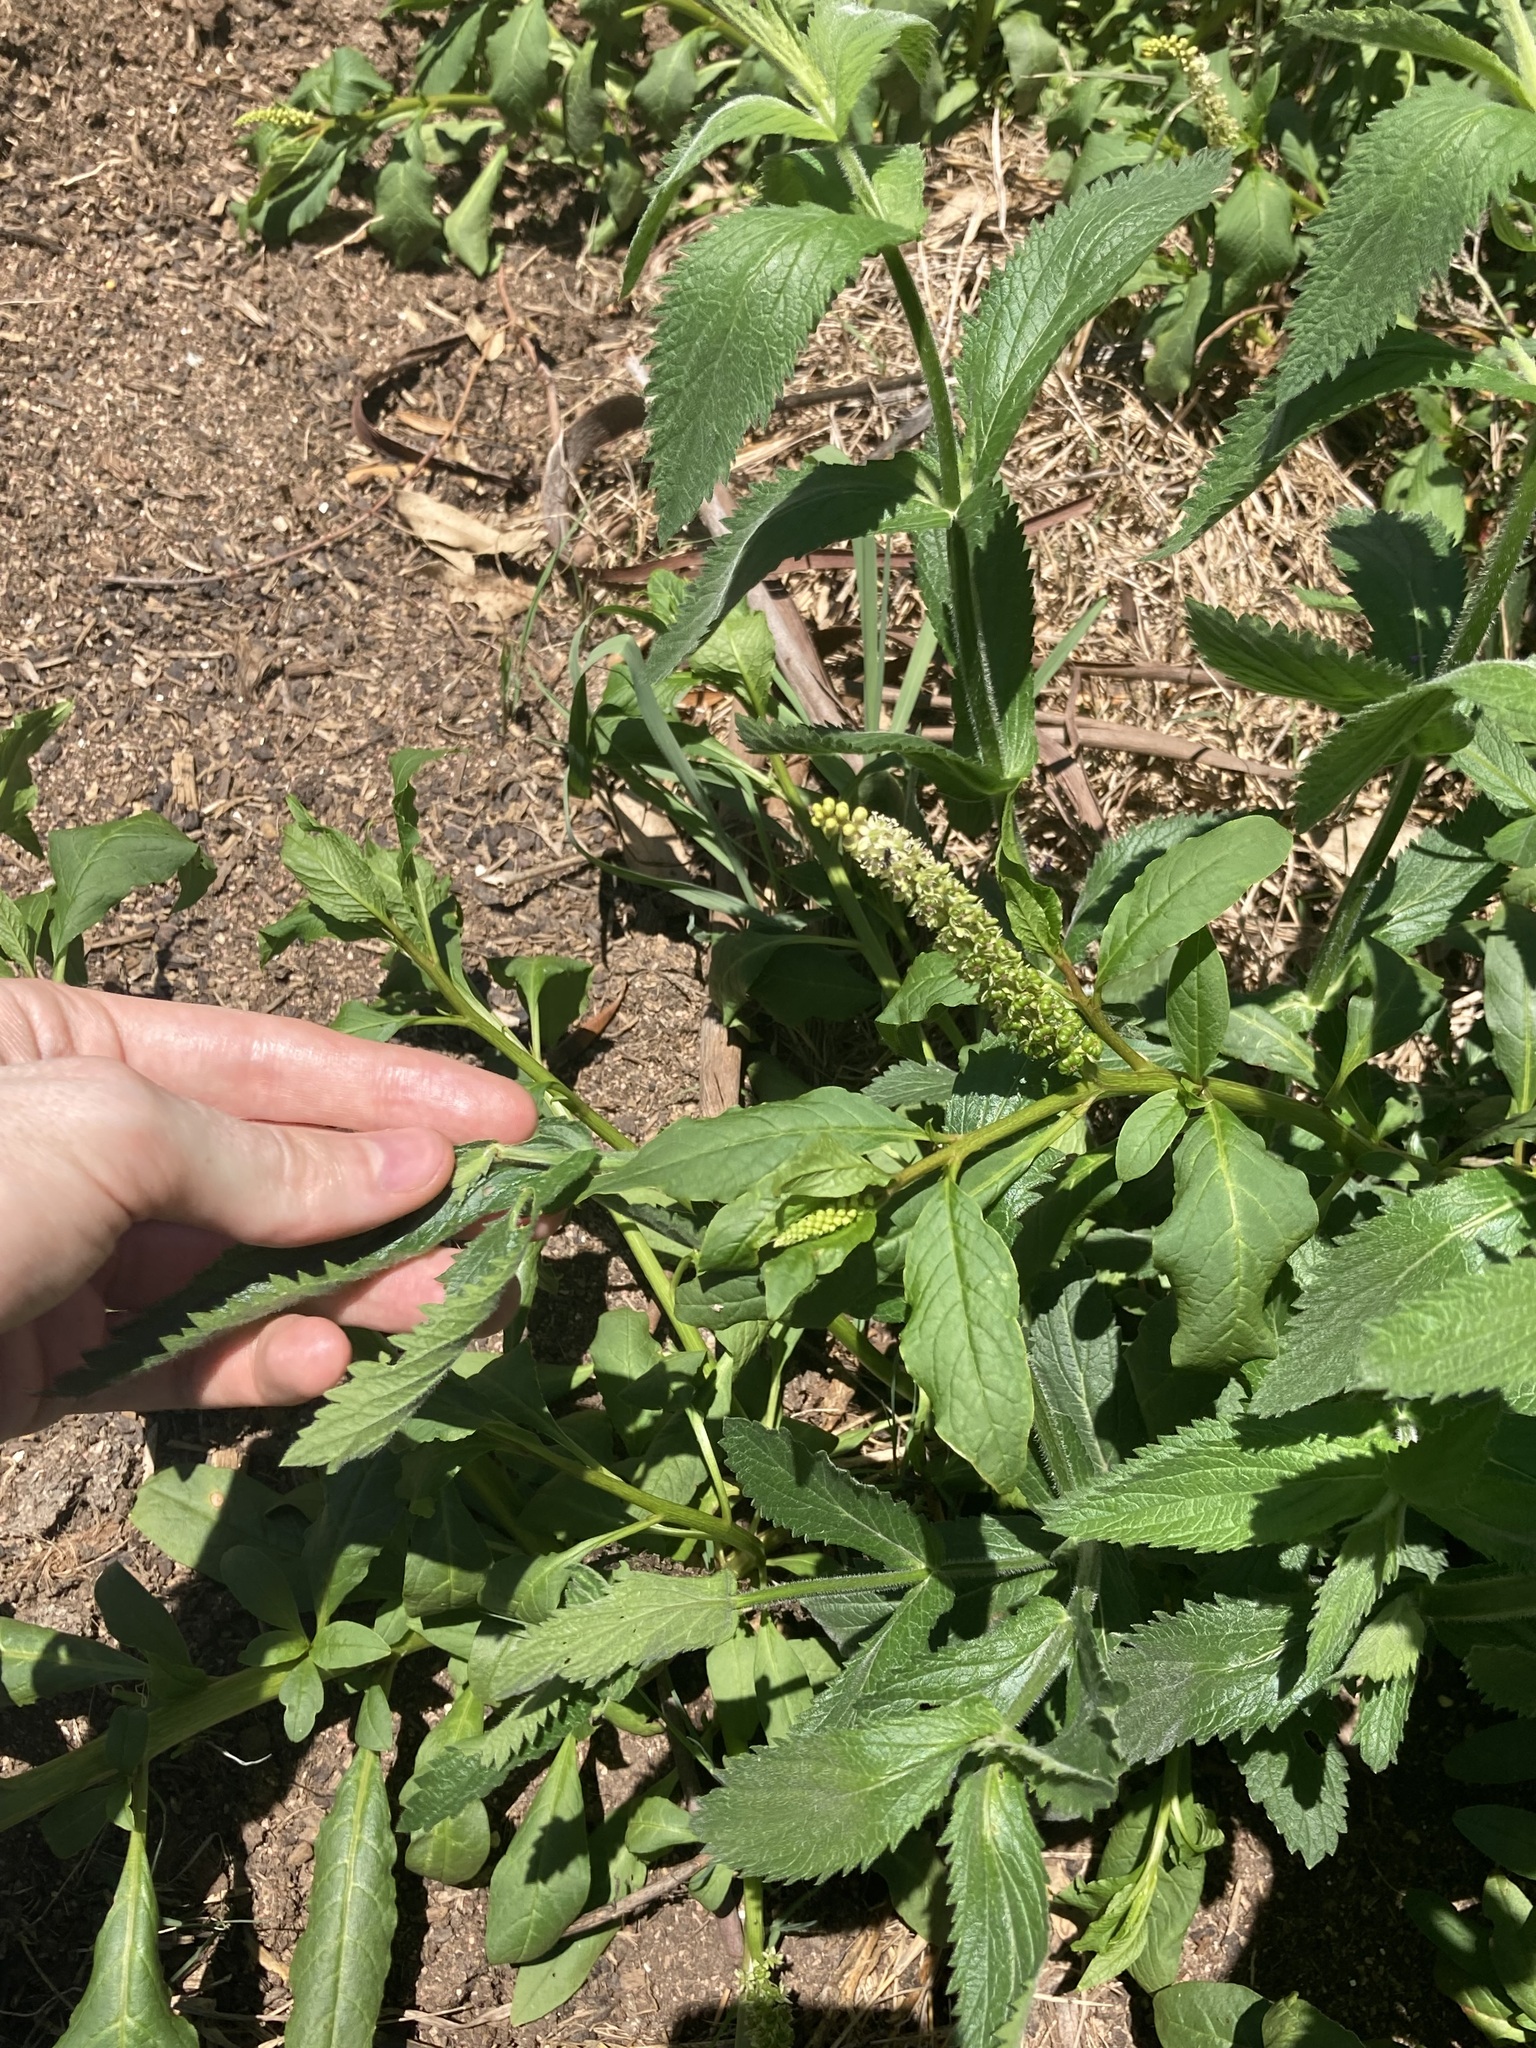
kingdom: Plantae
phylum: Tracheophyta
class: Magnoliopsida
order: Caryophyllales
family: Phytolaccaceae
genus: Phytolacca
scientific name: Phytolacca icosandra
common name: Button pokeweed
